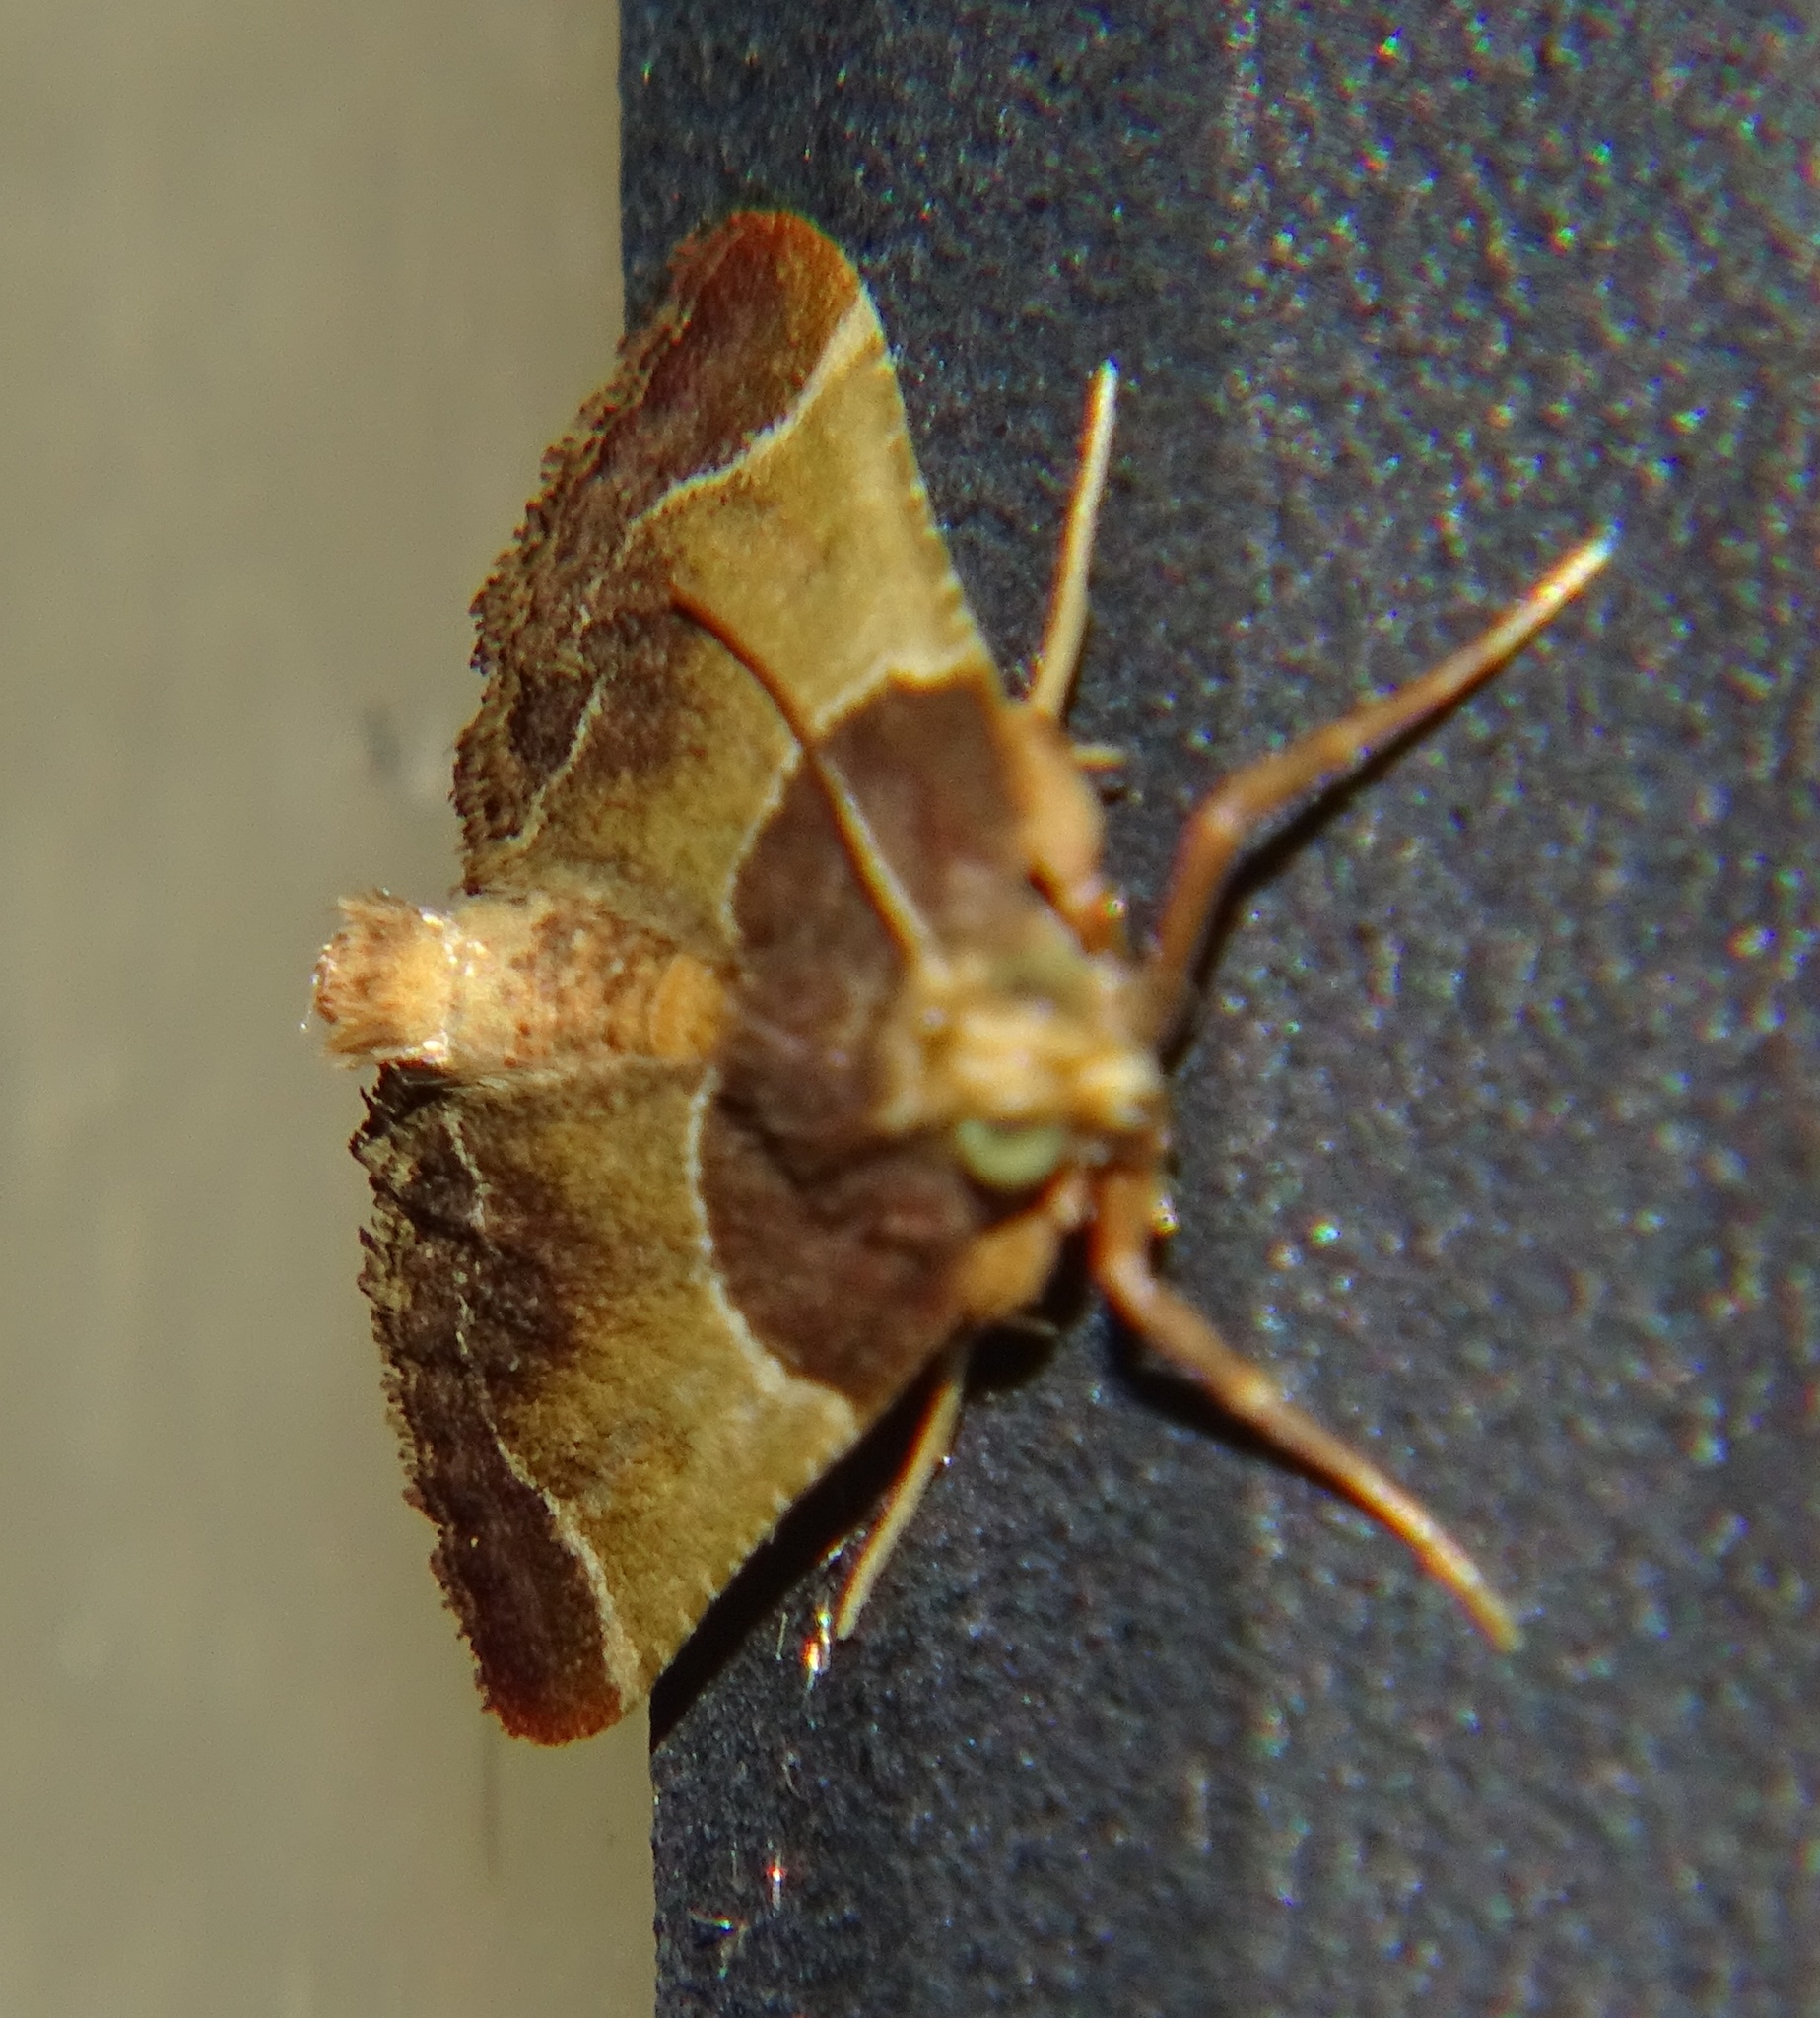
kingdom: Animalia
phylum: Arthropoda
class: Insecta
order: Lepidoptera
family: Pyralidae
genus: Pyralis
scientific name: Pyralis farinalis
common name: Meal moth
